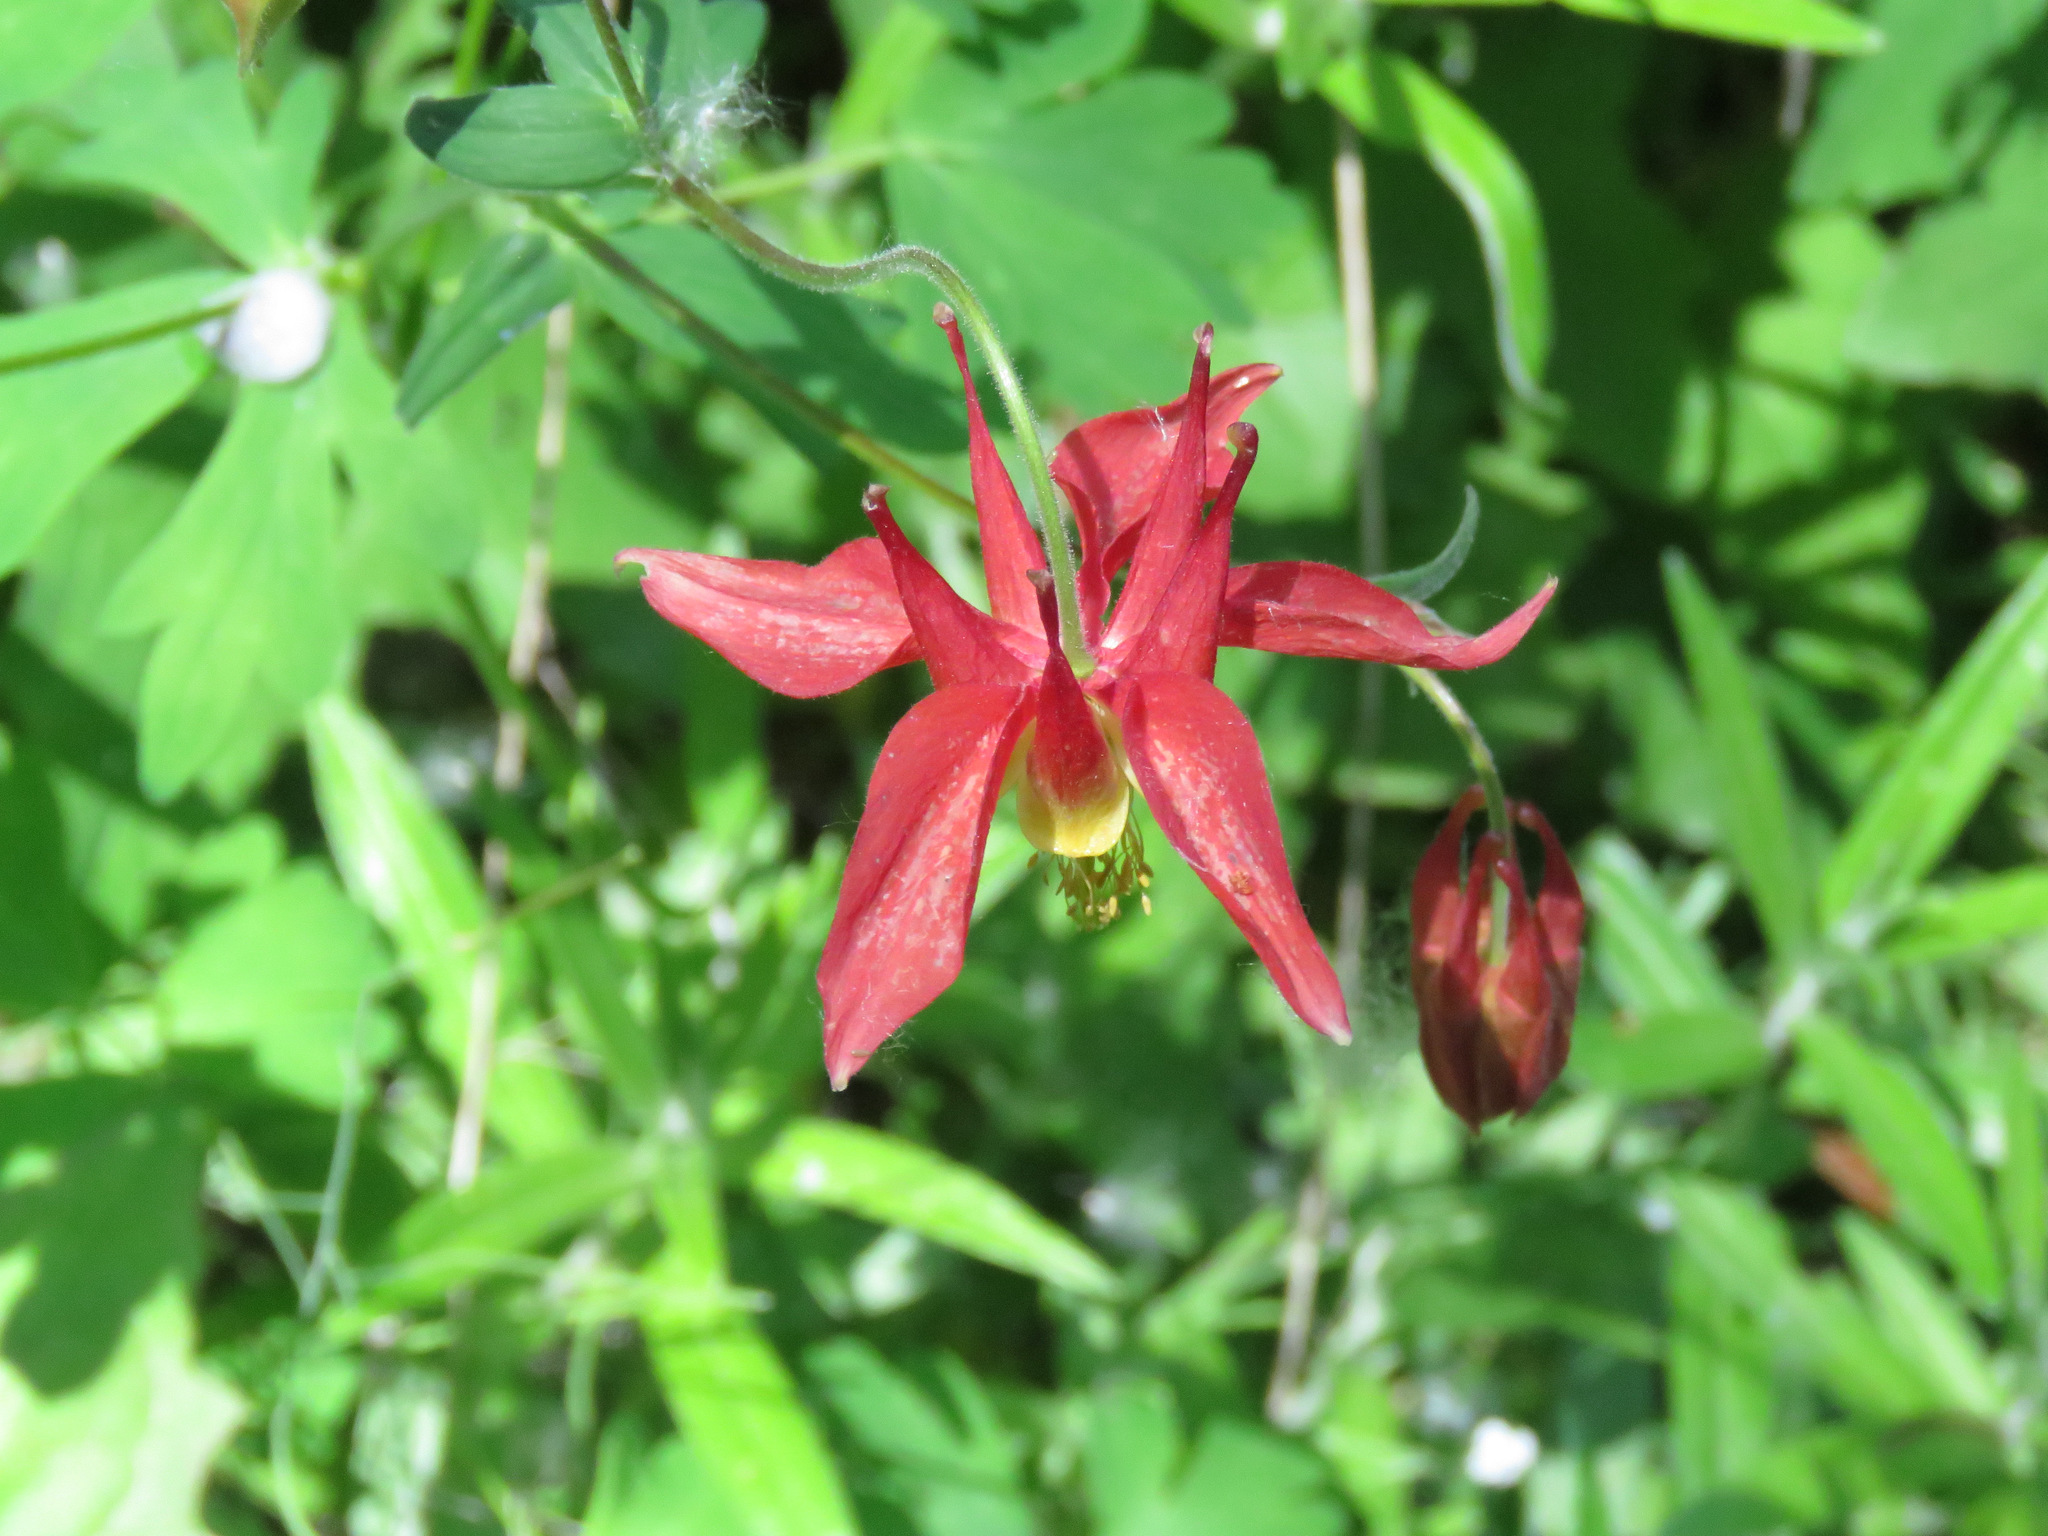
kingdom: Plantae
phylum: Tracheophyta
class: Magnoliopsida
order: Ranunculales
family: Ranunculaceae
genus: Aquilegia
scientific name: Aquilegia formosa
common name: Sitka columbine
